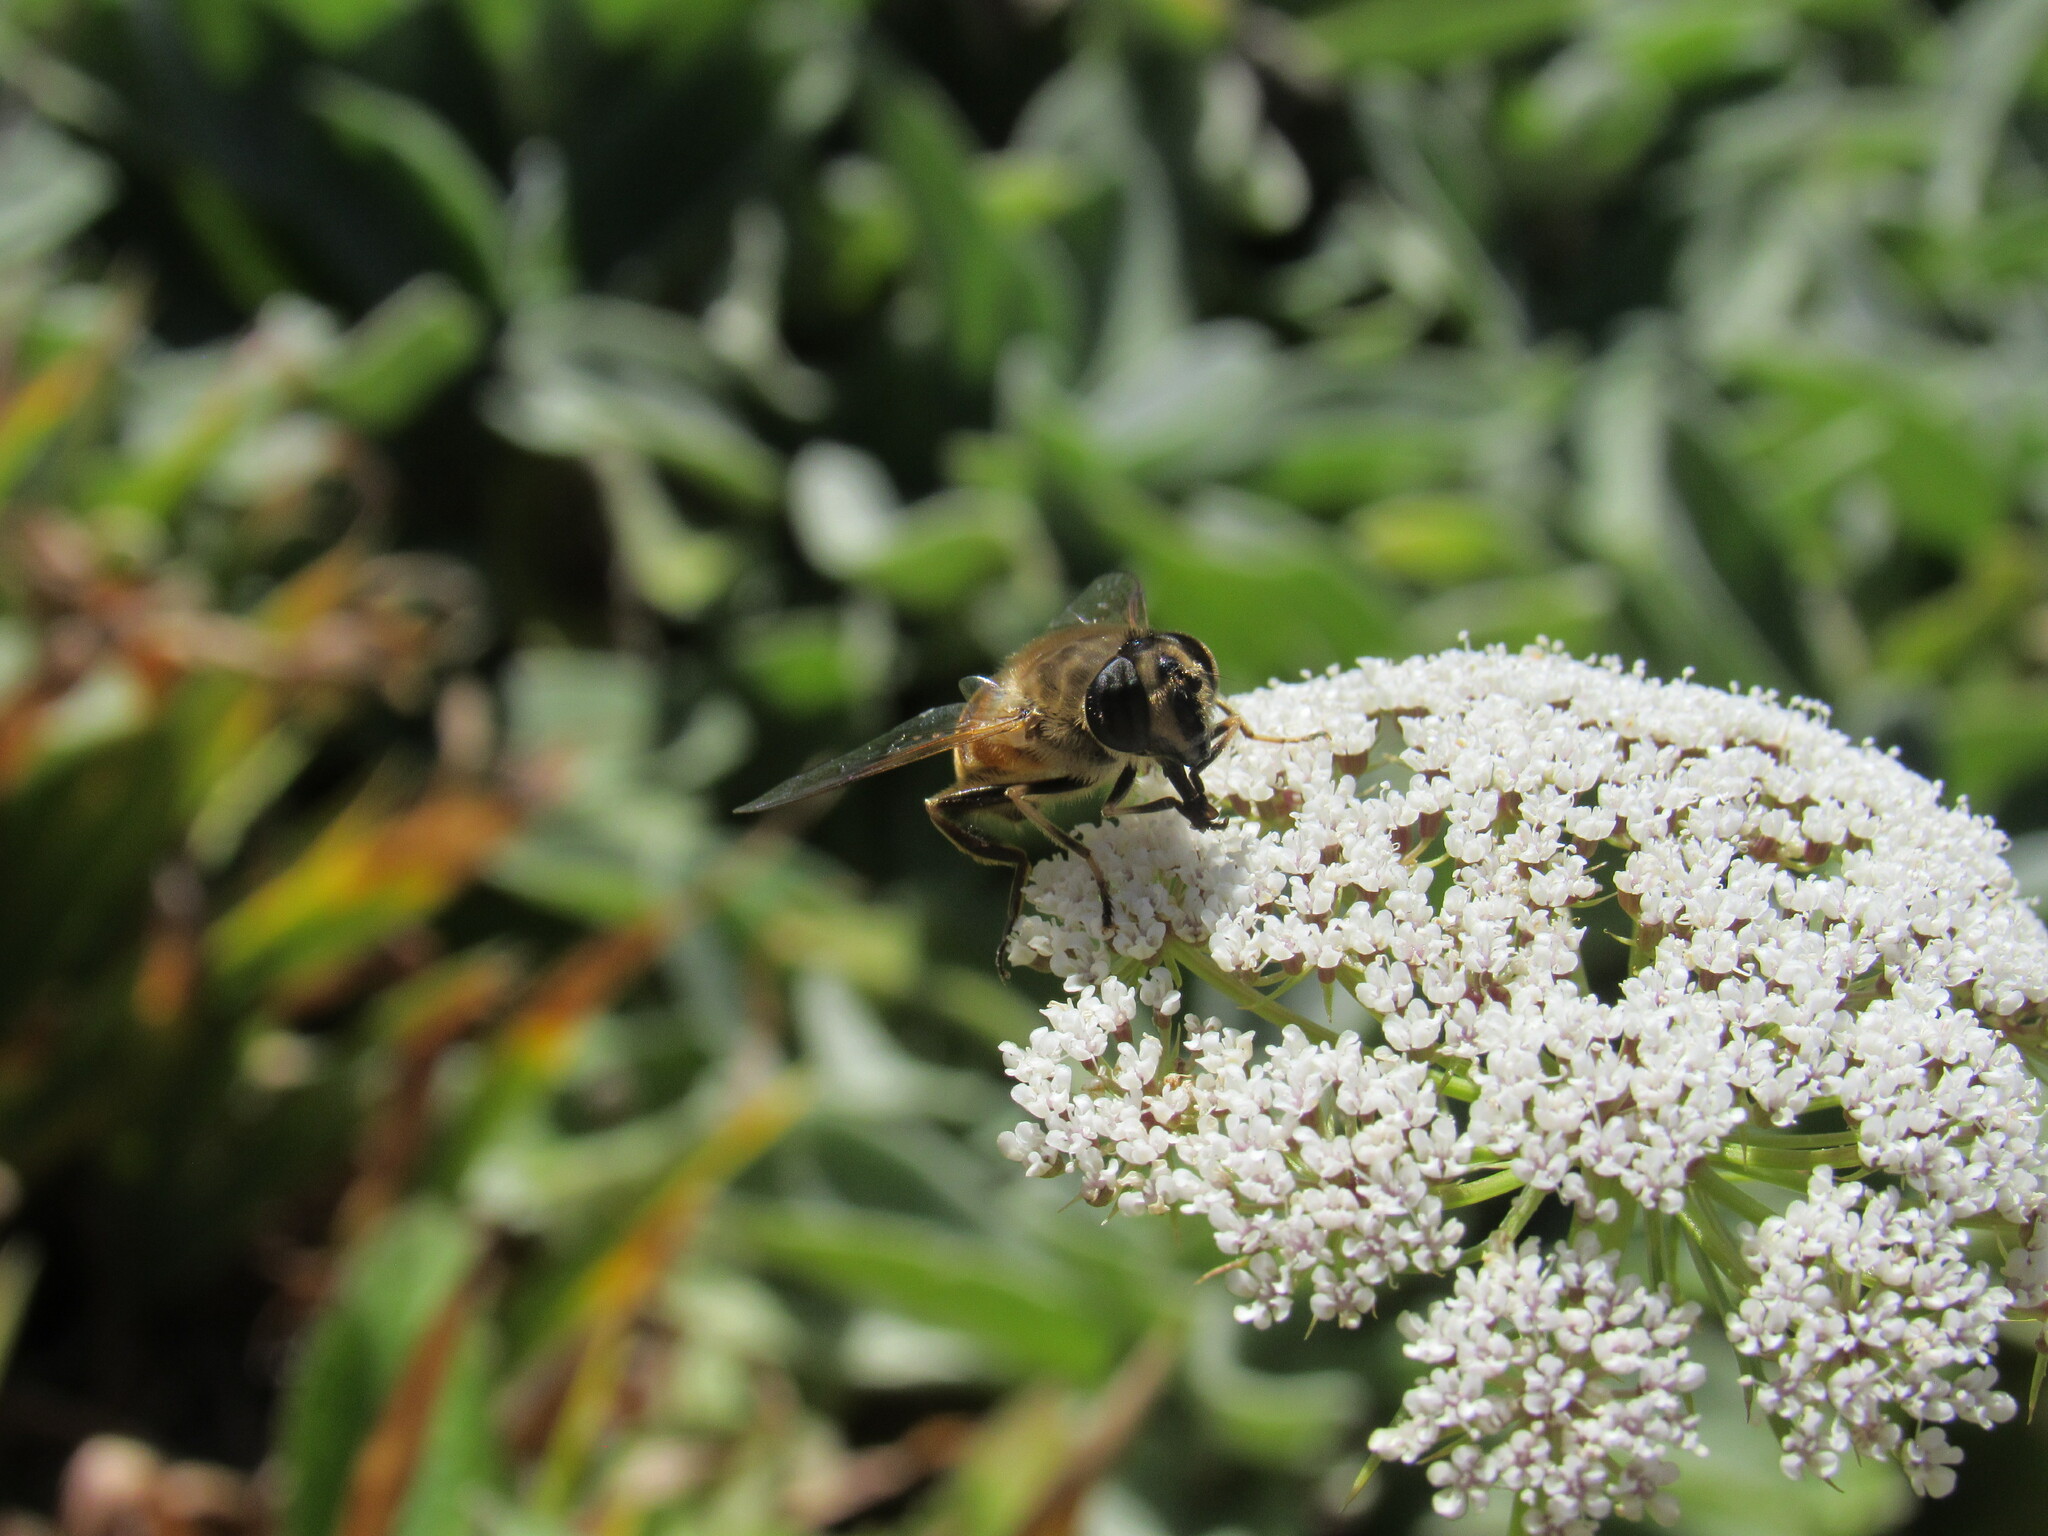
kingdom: Animalia
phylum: Arthropoda
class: Insecta
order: Diptera
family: Syrphidae
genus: Eristalis
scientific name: Eristalis tenax
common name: Drone fly
